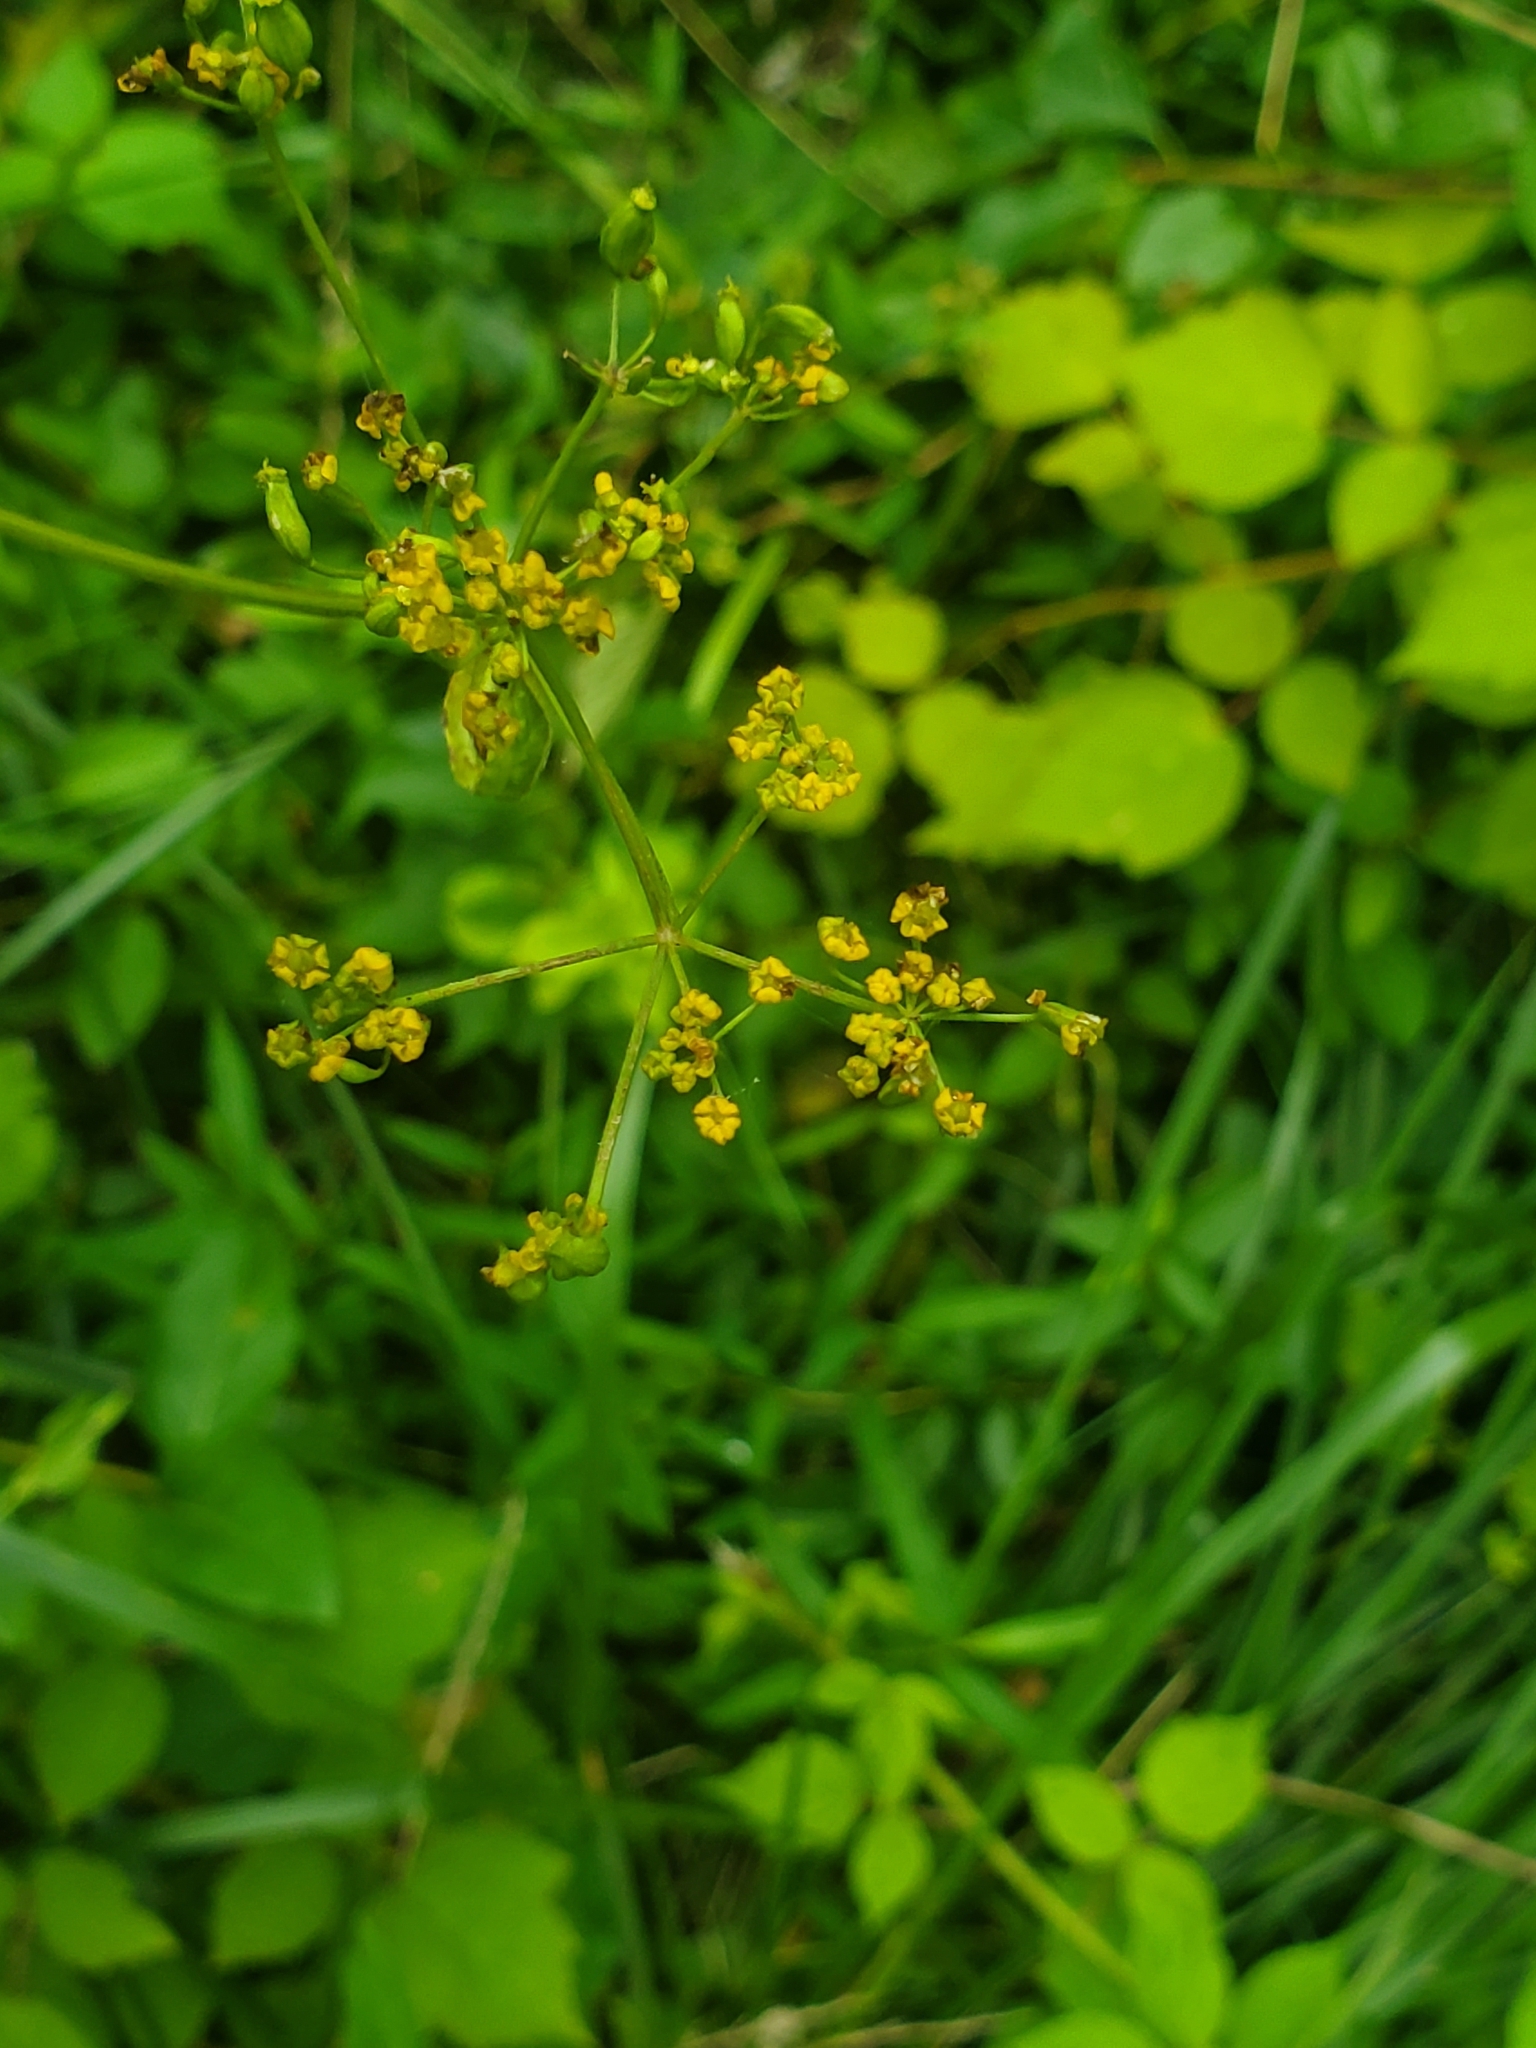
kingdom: Plantae
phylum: Tracheophyta
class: Magnoliopsida
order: Apiales
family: Apiaceae
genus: Pastinaca
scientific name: Pastinaca sativa
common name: Wild parsnip
